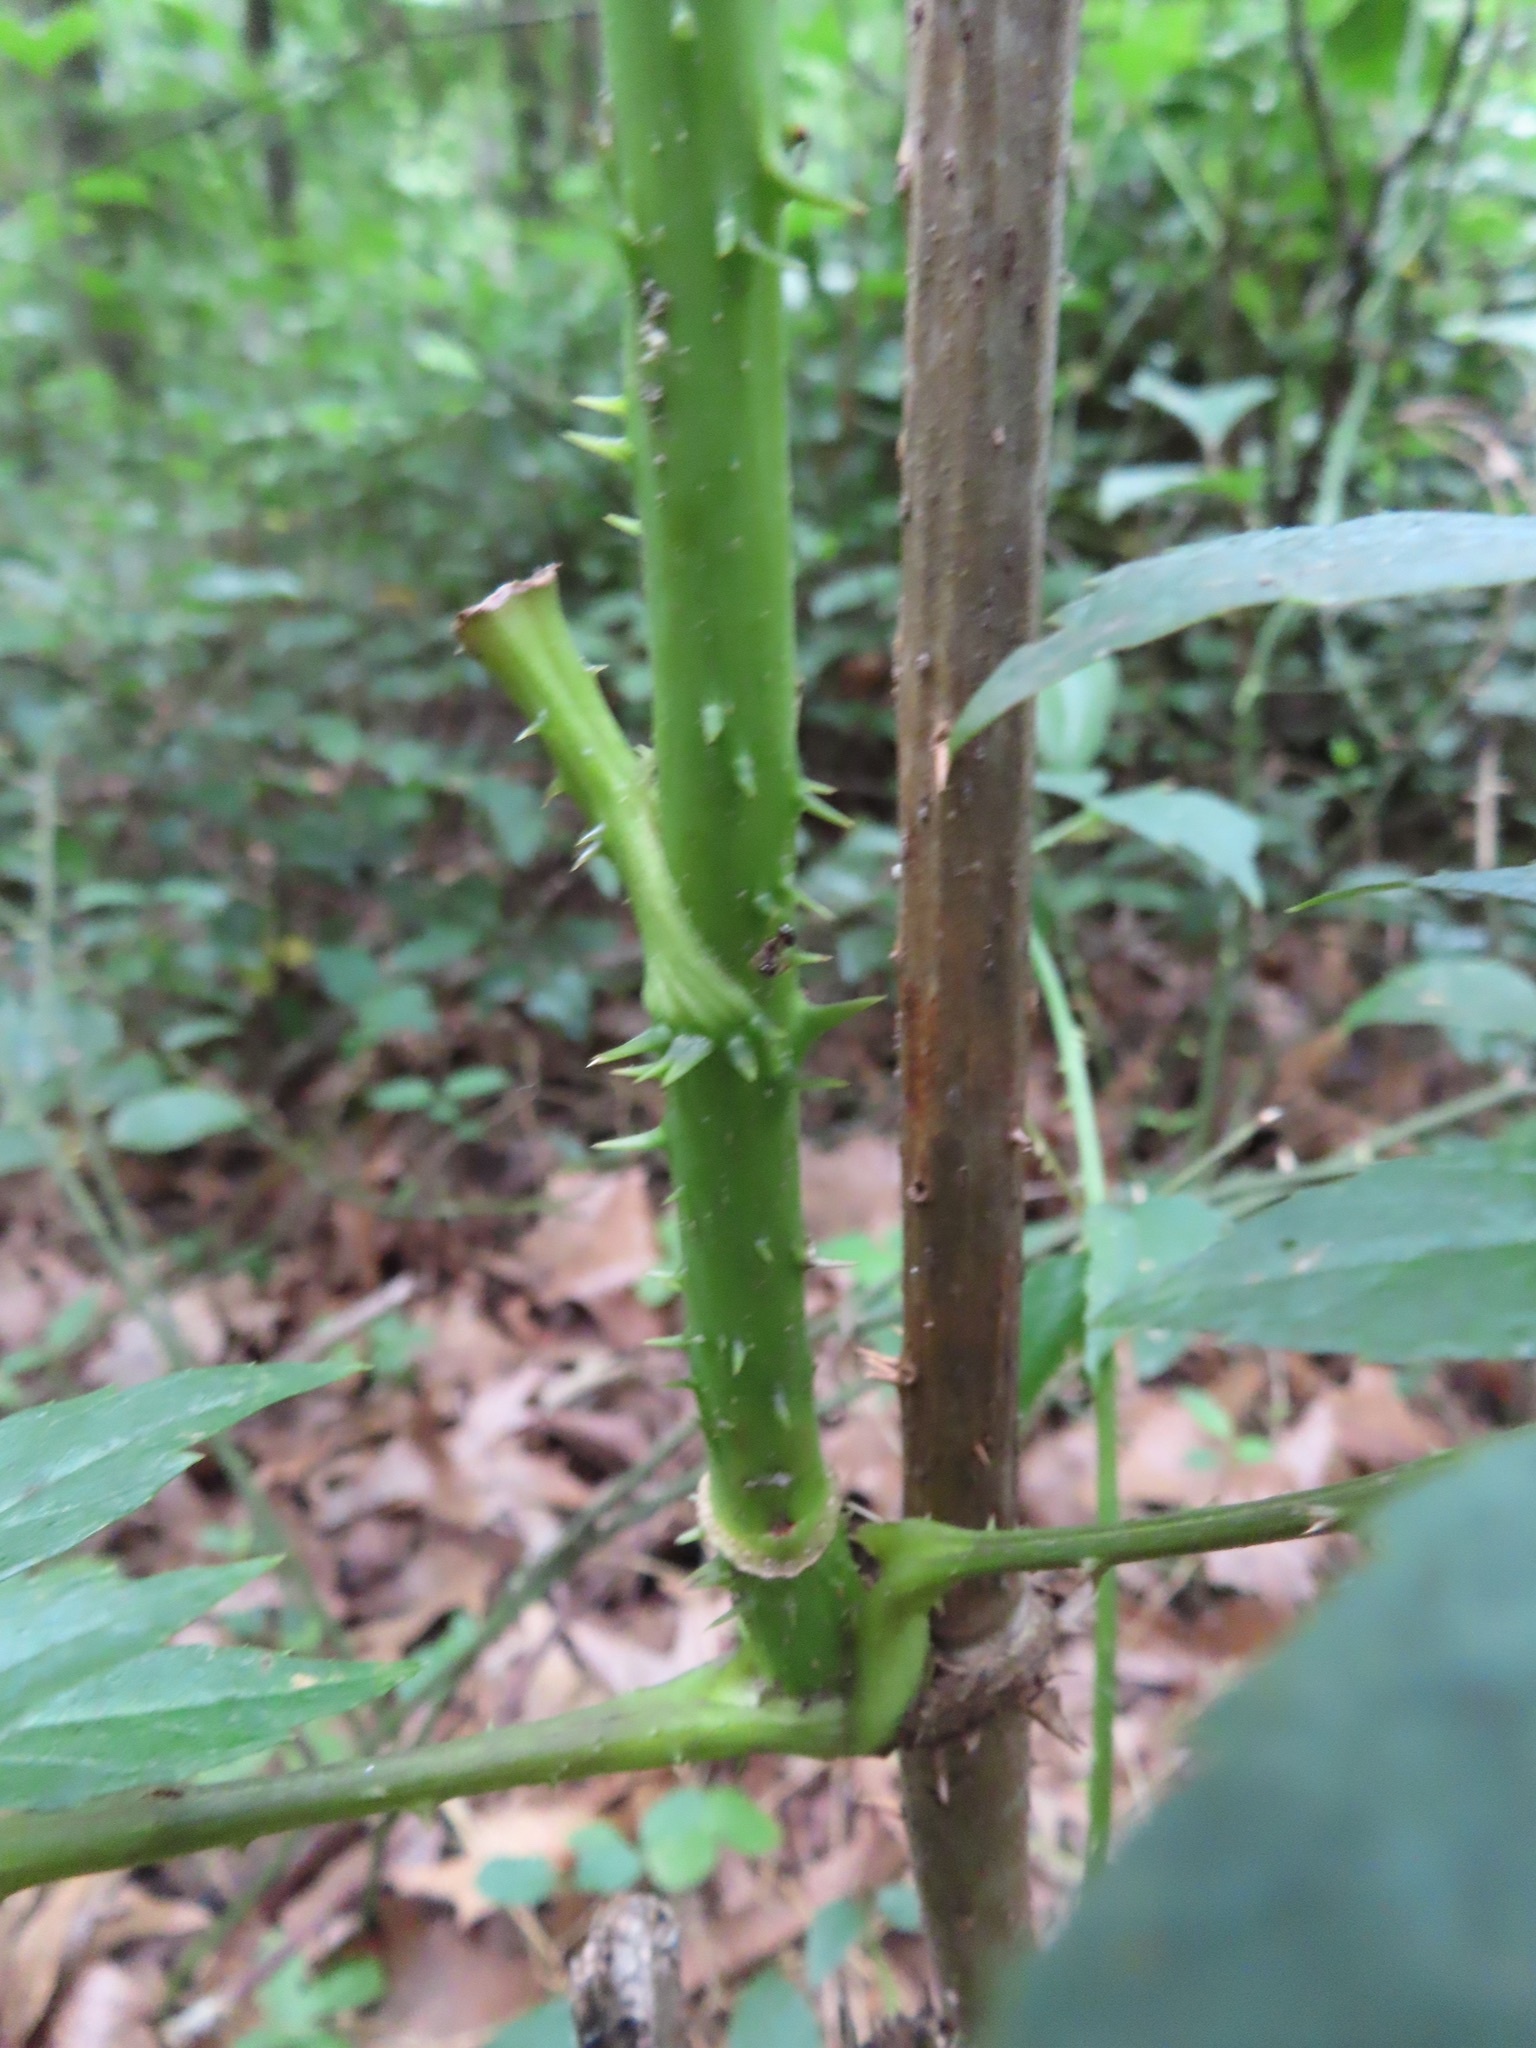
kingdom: Plantae
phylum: Tracheophyta
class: Magnoliopsida
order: Apiales
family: Araliaceae
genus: Aralia
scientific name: Aralia spinosa
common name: Hercules'-club
